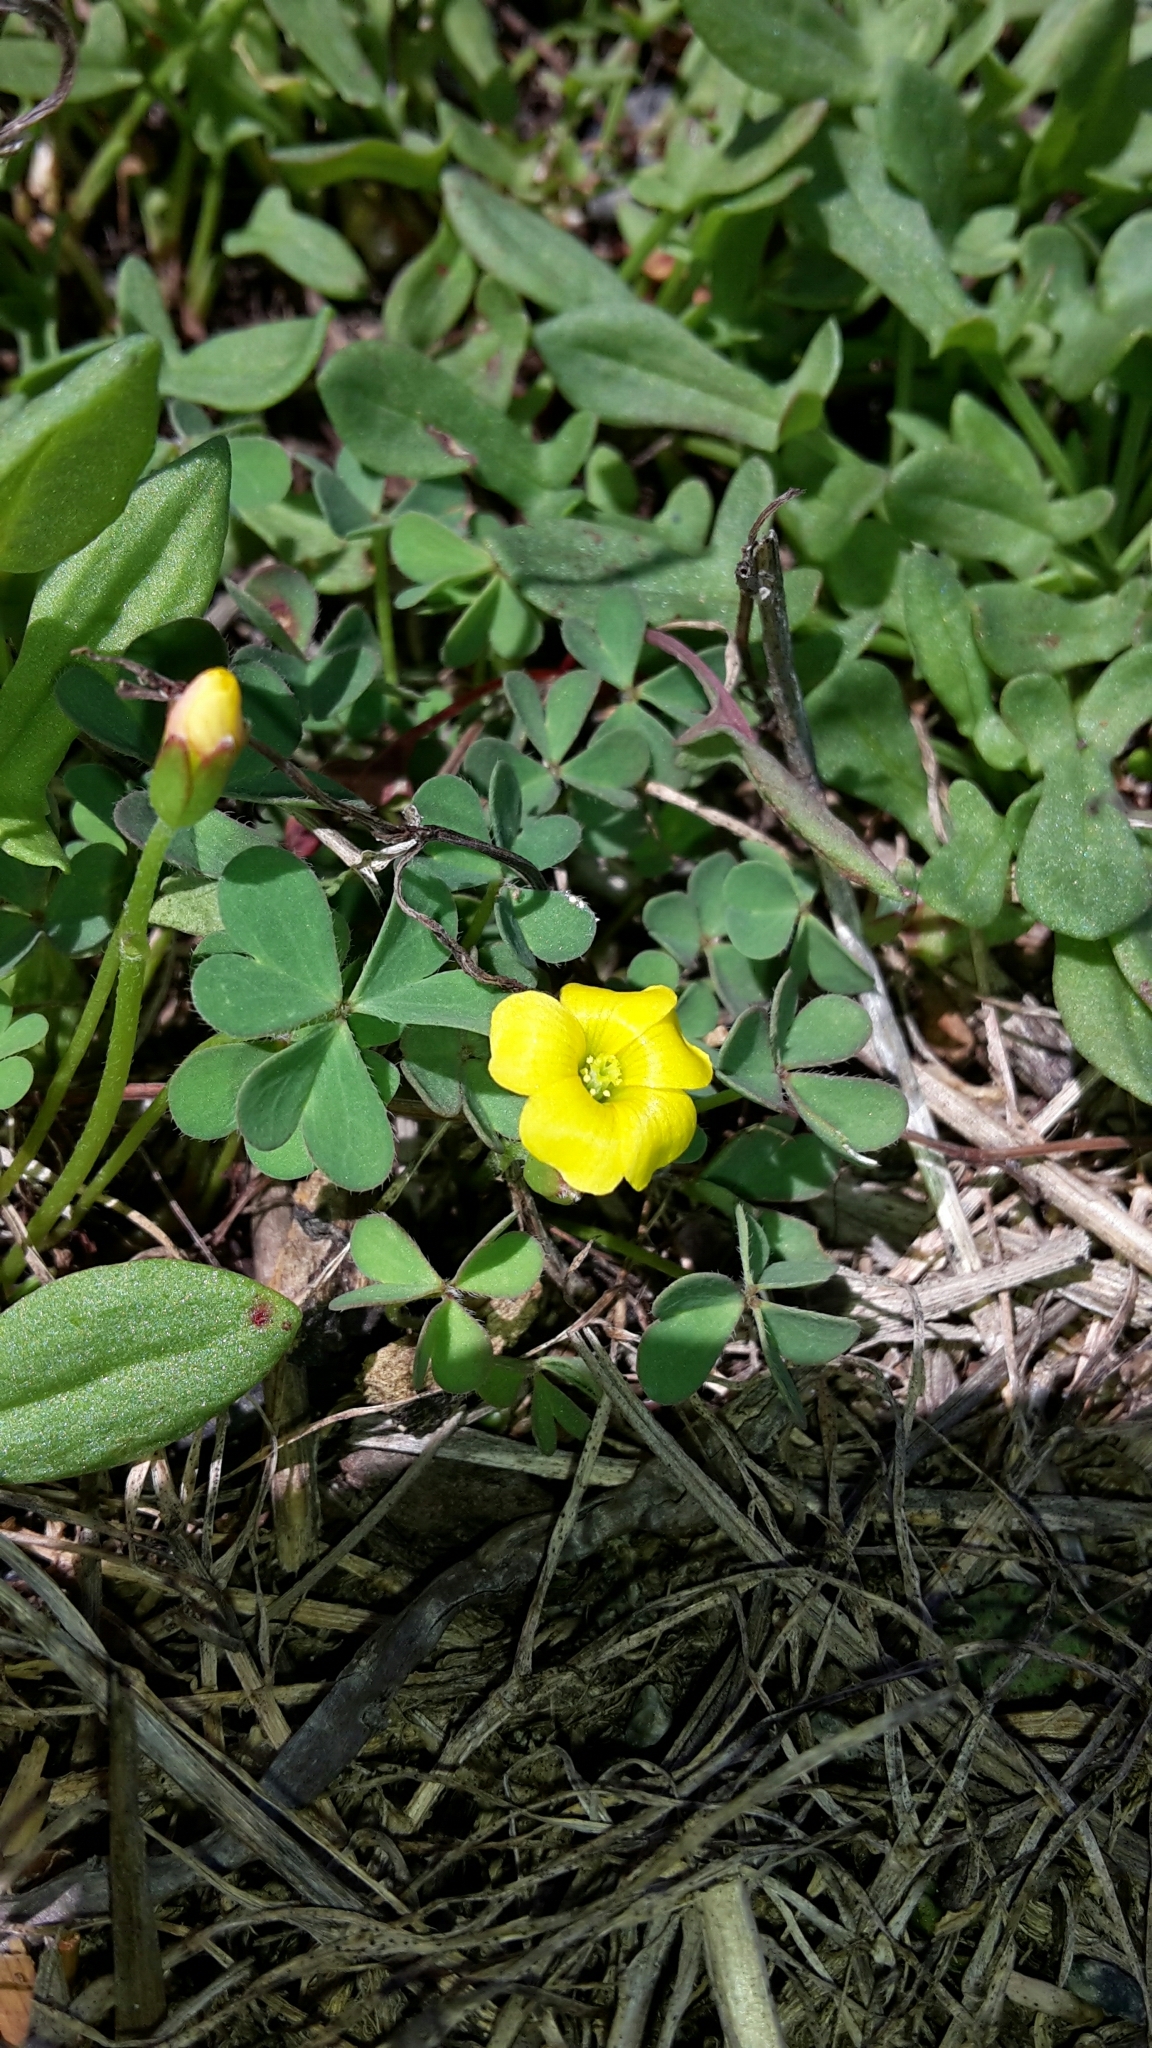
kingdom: Plantae
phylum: Tracheophyta
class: Magnoliopsida
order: Oxalidales
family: Oxalidaceae
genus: Oxalis
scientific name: Oxalis exilis
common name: Least yellow-sorrel
